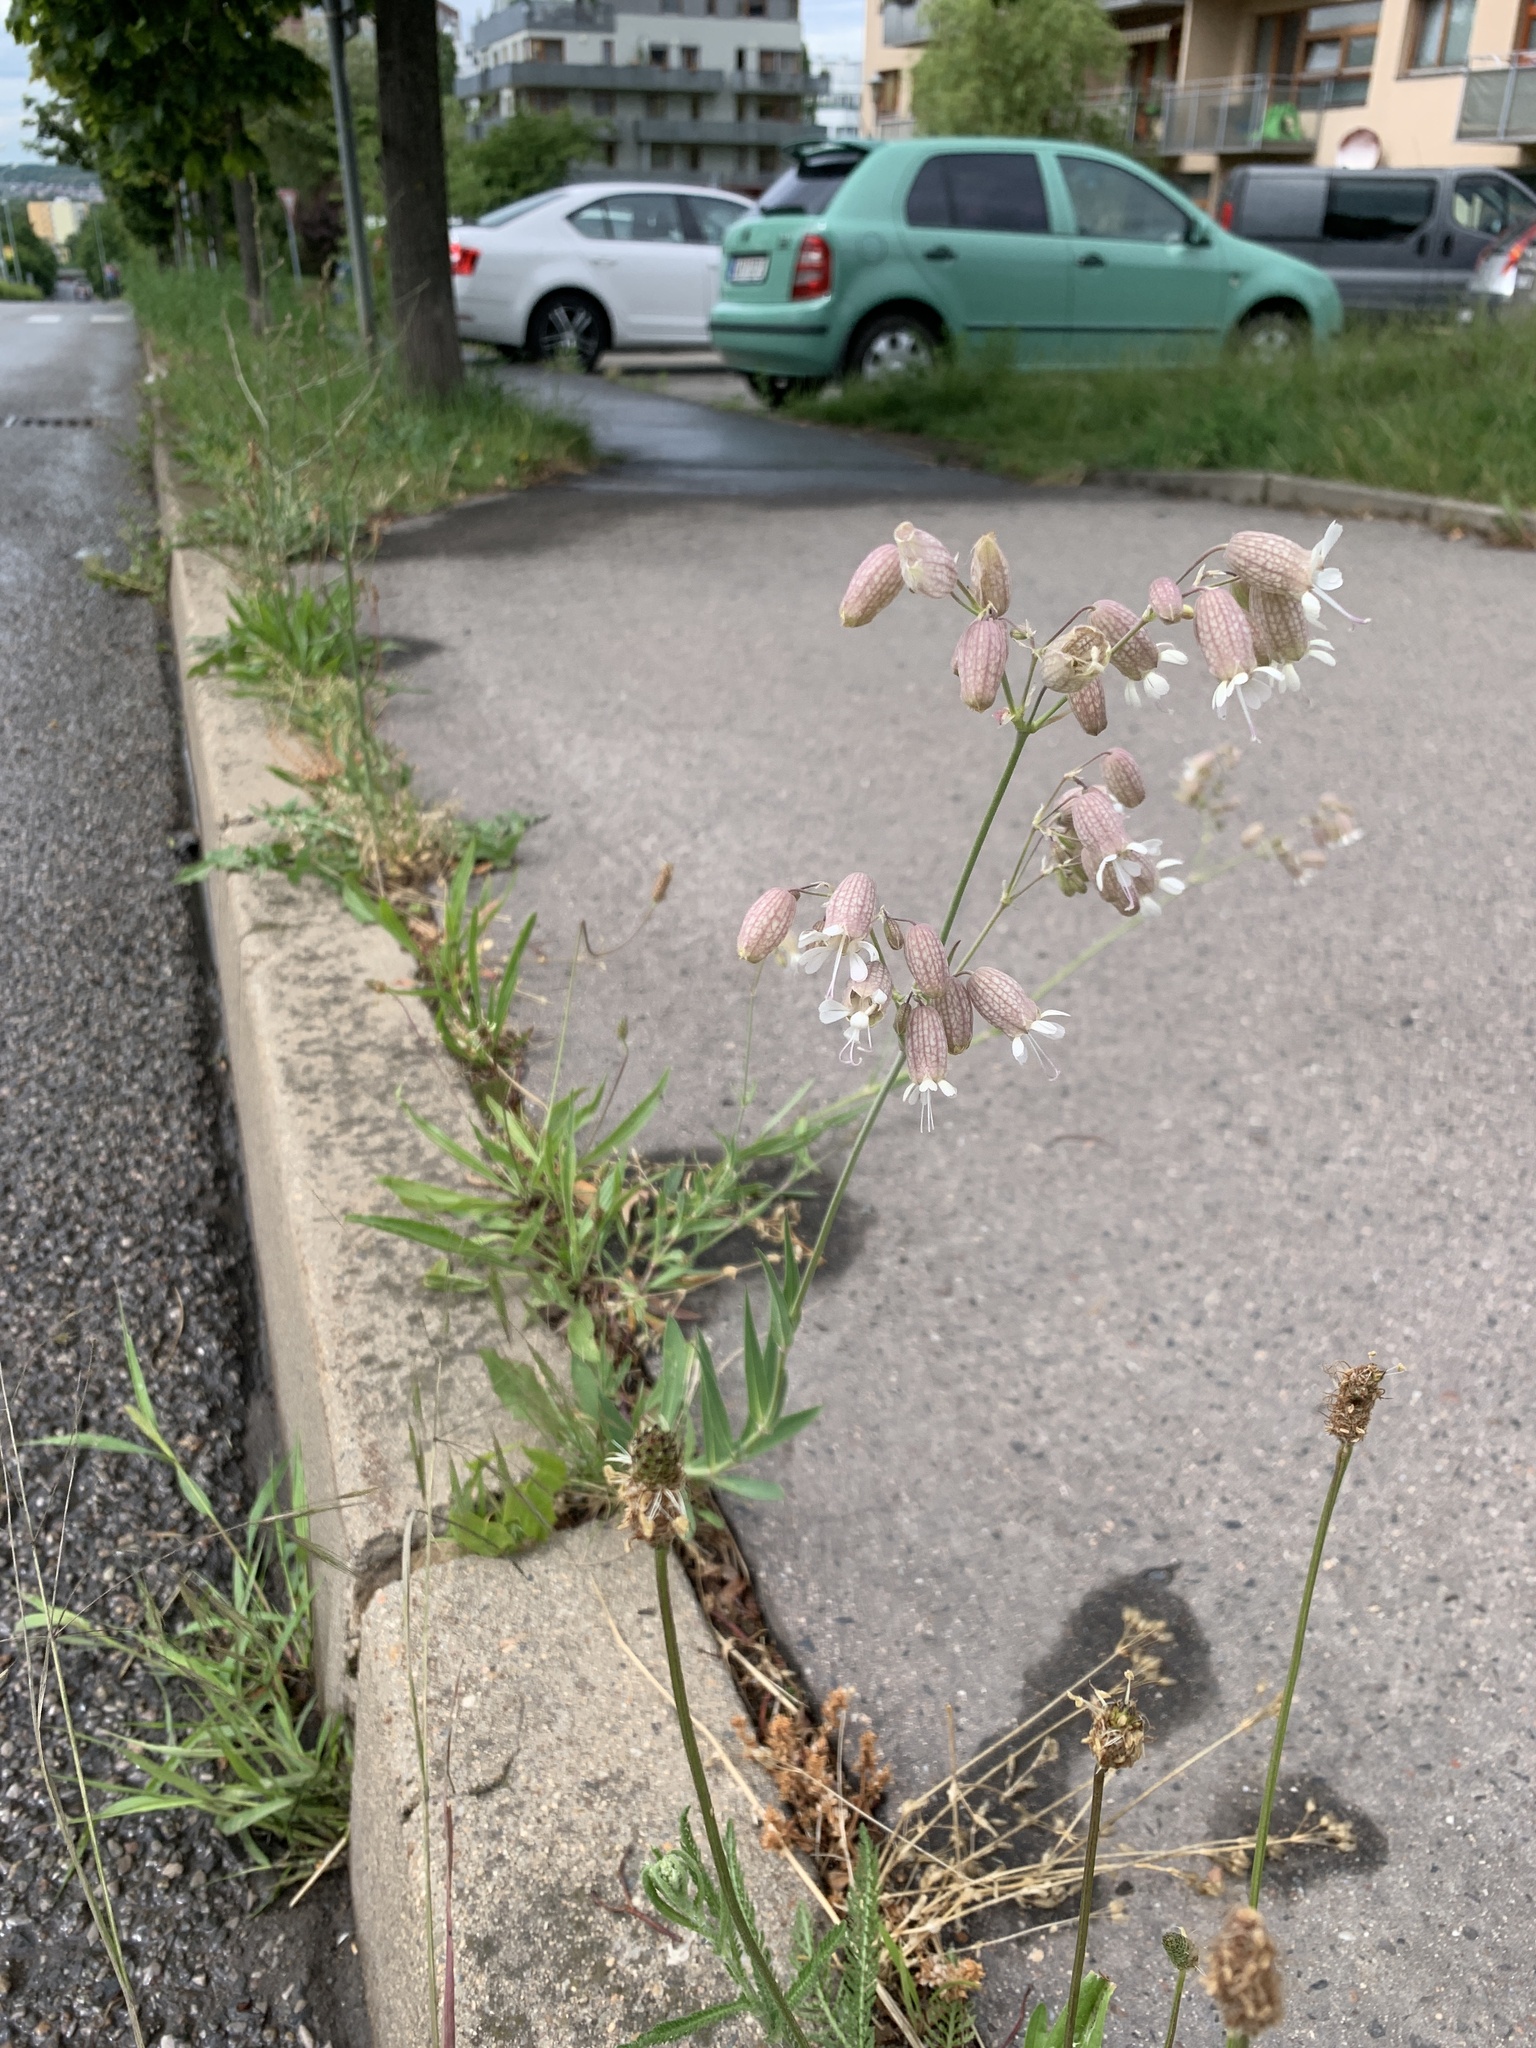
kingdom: Plantae
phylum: Tracheophyta
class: Magnoliopsida
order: Caryophyllales
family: Caryophyllaceae
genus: Silene
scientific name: Silene vulgaris
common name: Bladder campion
